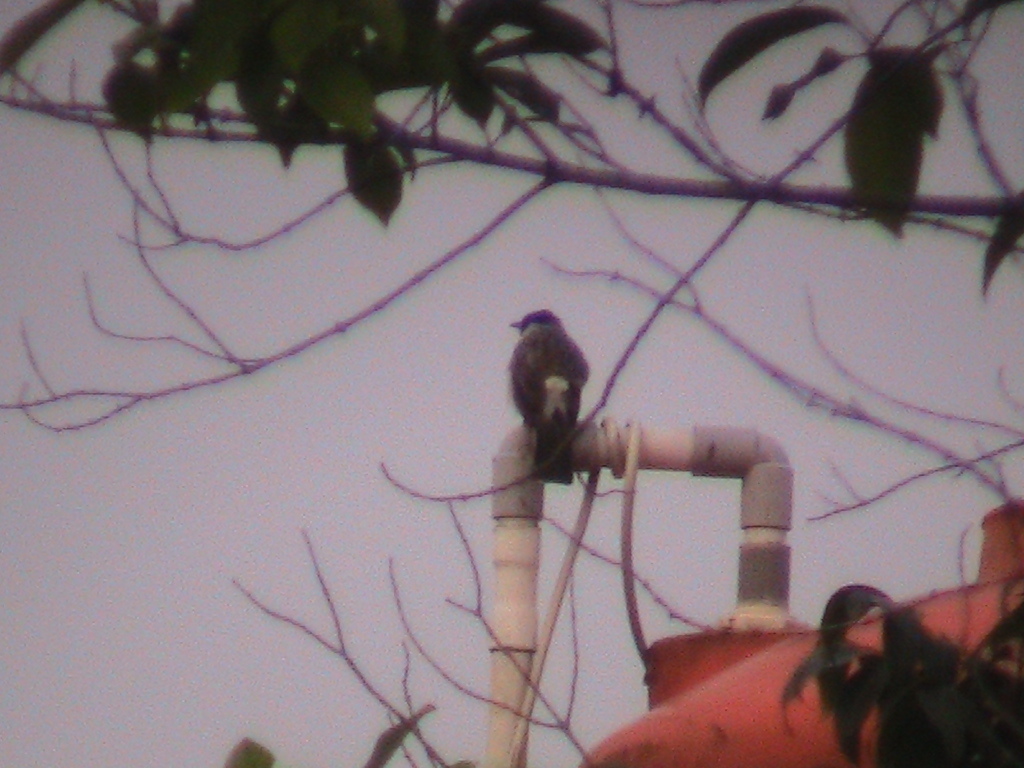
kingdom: Animalia
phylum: Chordata
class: Aves
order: Passeriformes
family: Pycnonotidae
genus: Pycnonotus
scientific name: Pycnonotus aurigaster
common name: Sooty-headed bulbul
